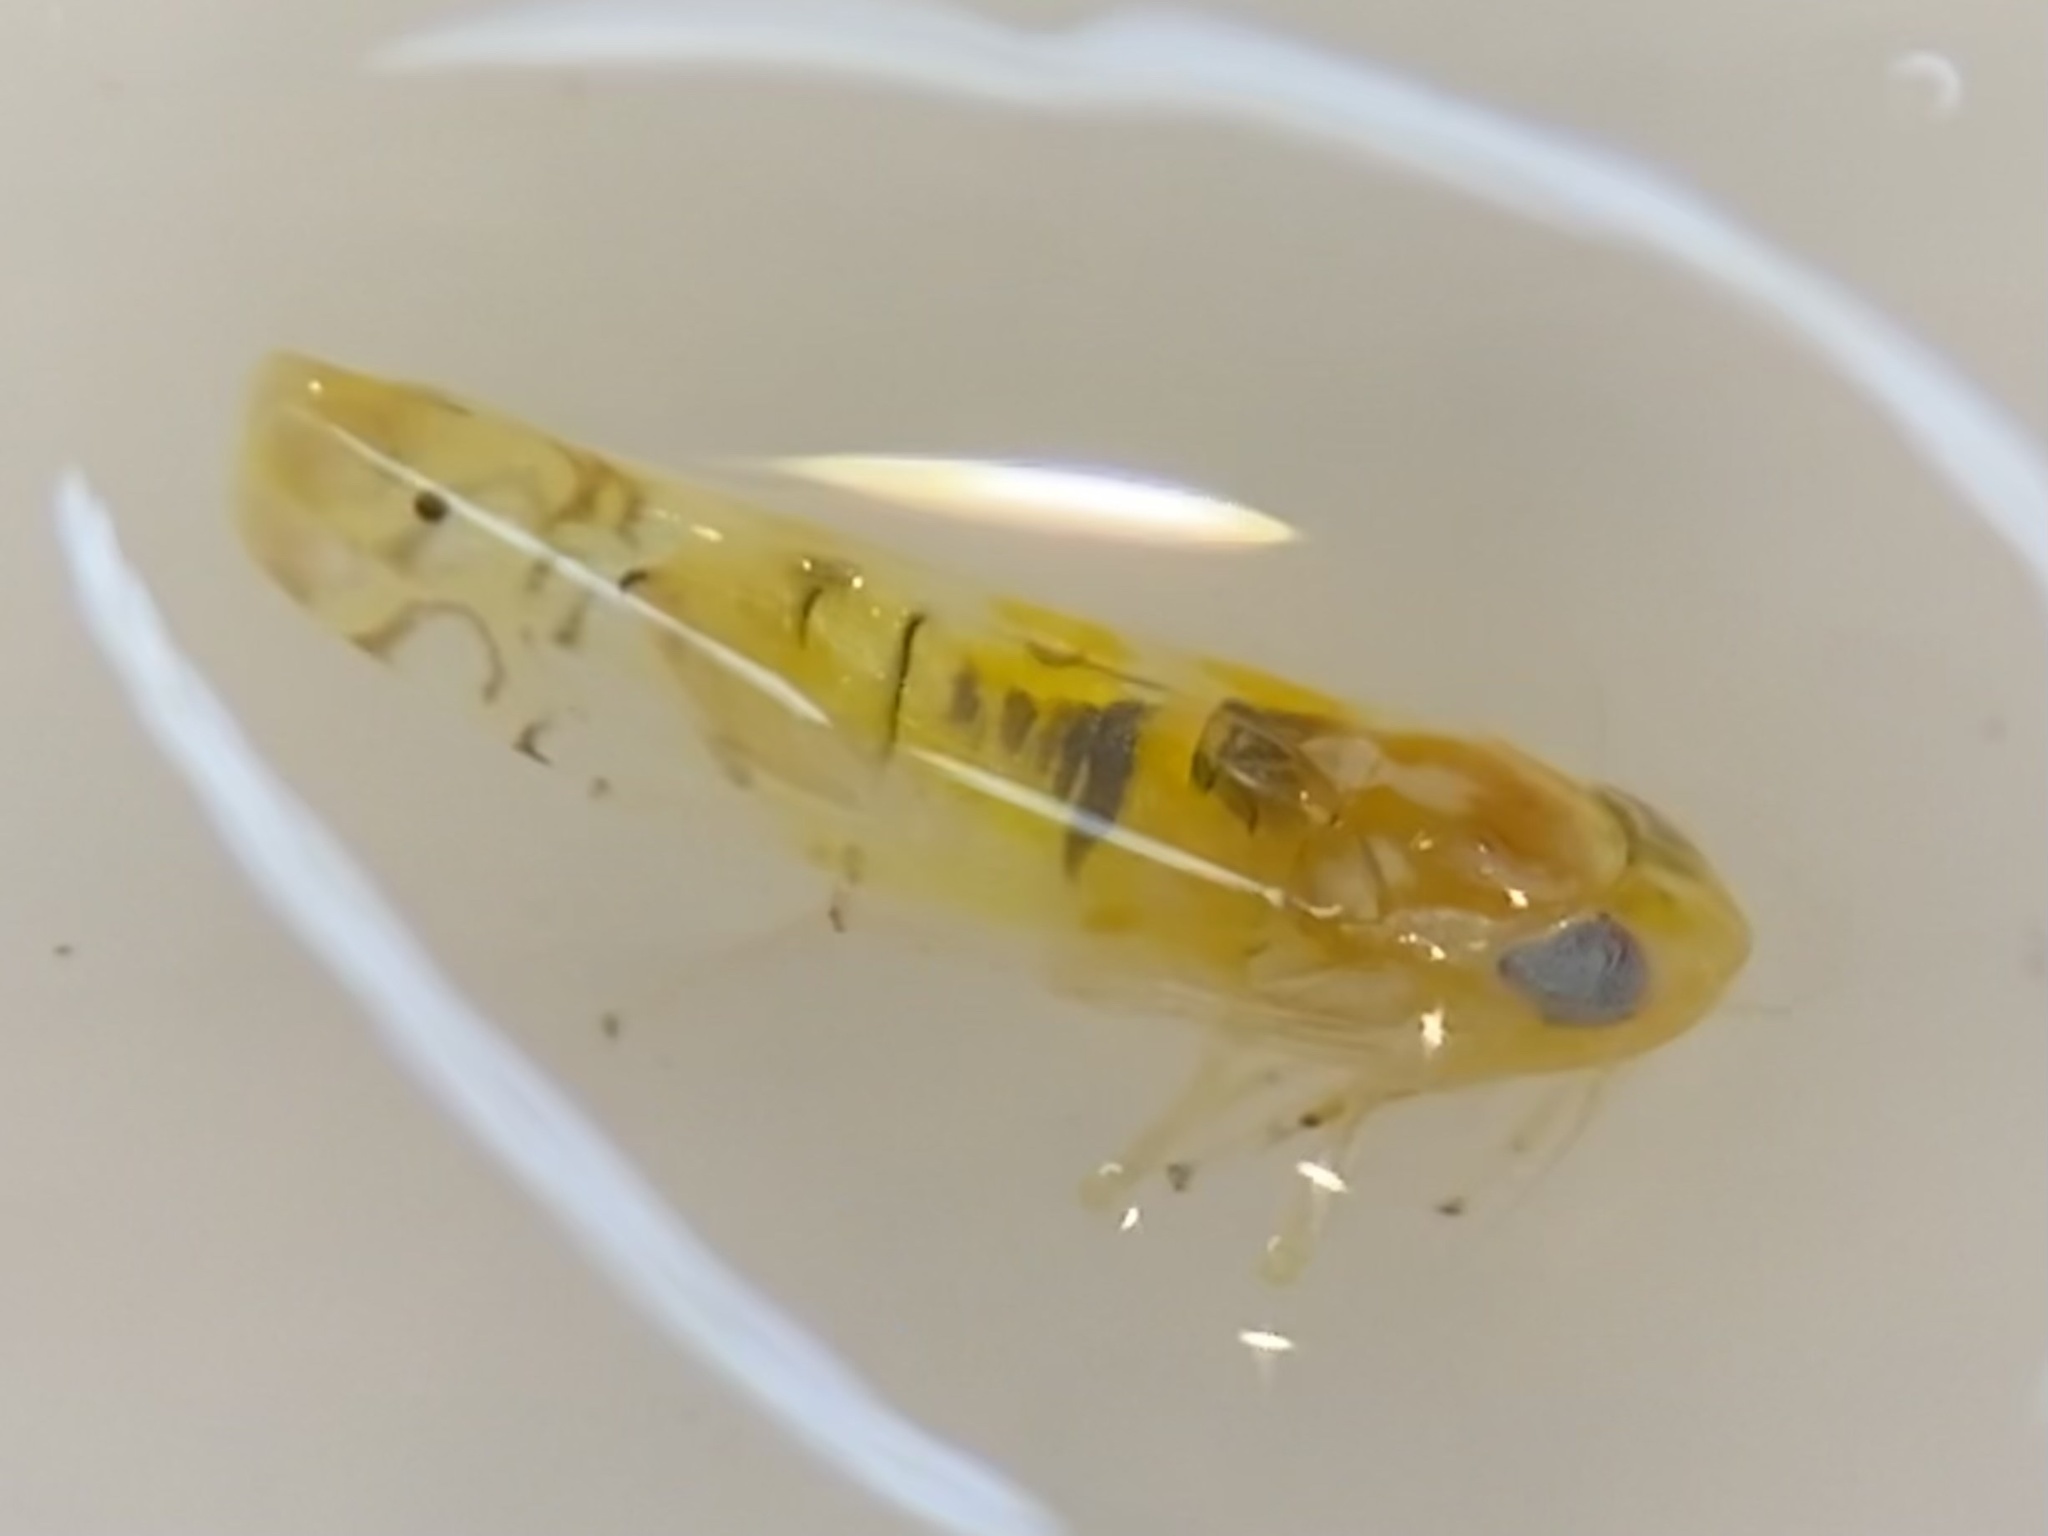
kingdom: Animalia
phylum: Arthropoda
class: Insecta
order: Hemiptera
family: Cicadellidae
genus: Alconeura
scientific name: Alconeura lappa
